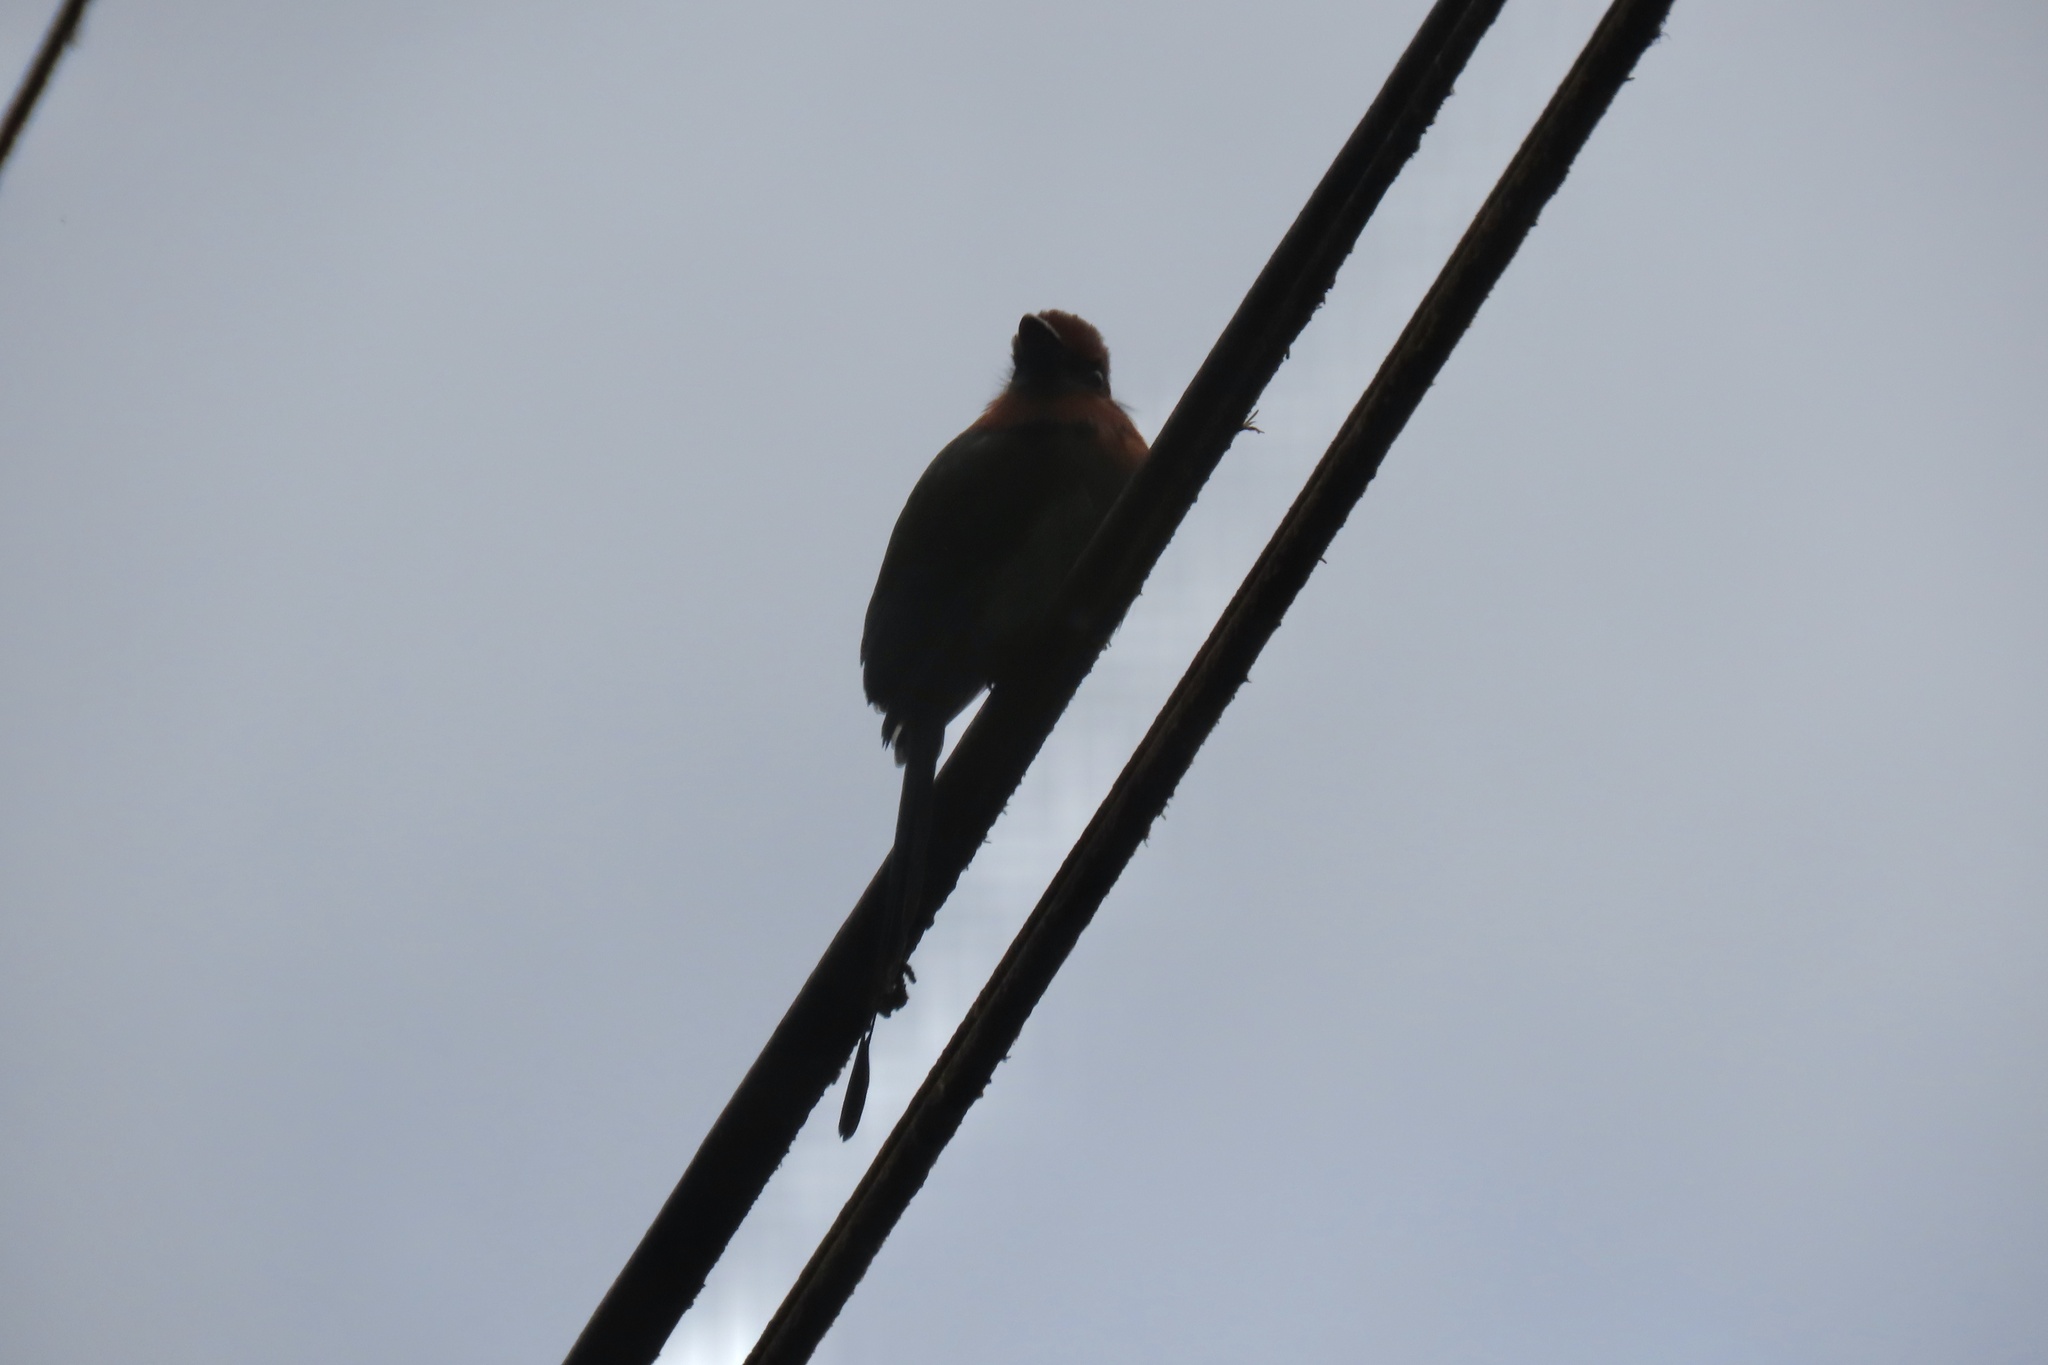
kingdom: Animalia
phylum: Chordata
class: Aves
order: Coraciiformes
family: Momotidae
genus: Electron
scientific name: Electron platyrhynchum
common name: Broad-billed motmot
